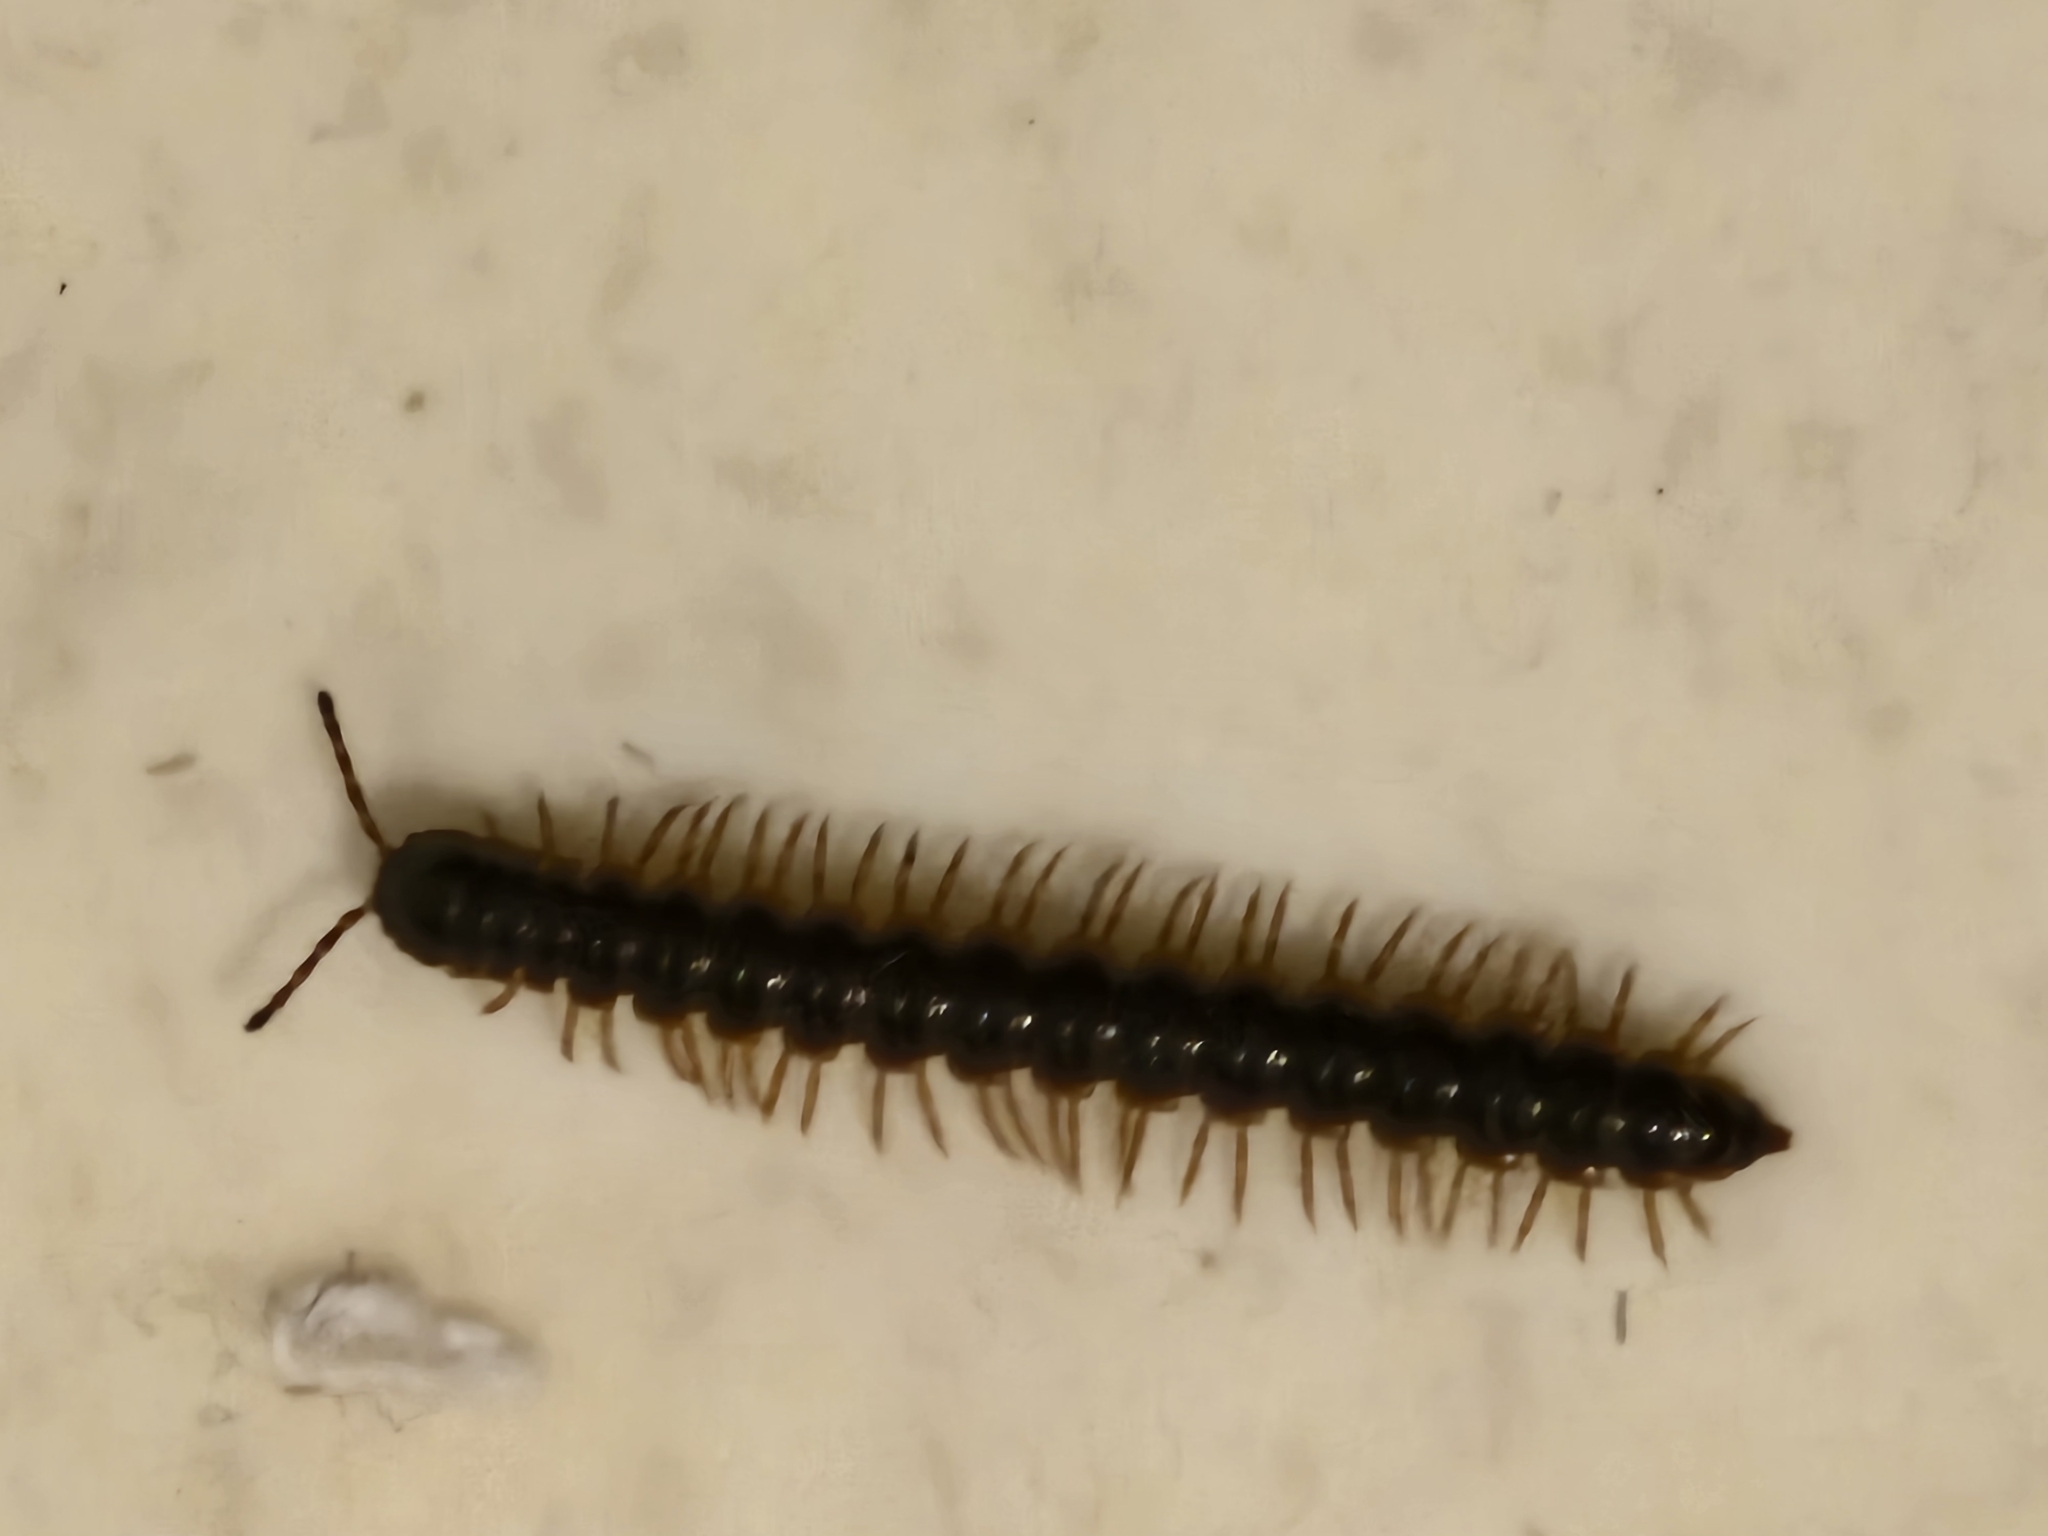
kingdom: Animalia
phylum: Arthropoda
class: Diplopoda
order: Polydesmida
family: Paradoxosomatidae
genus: Oxidus
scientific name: Oxidus gracilis
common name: Greenhouse millipede
